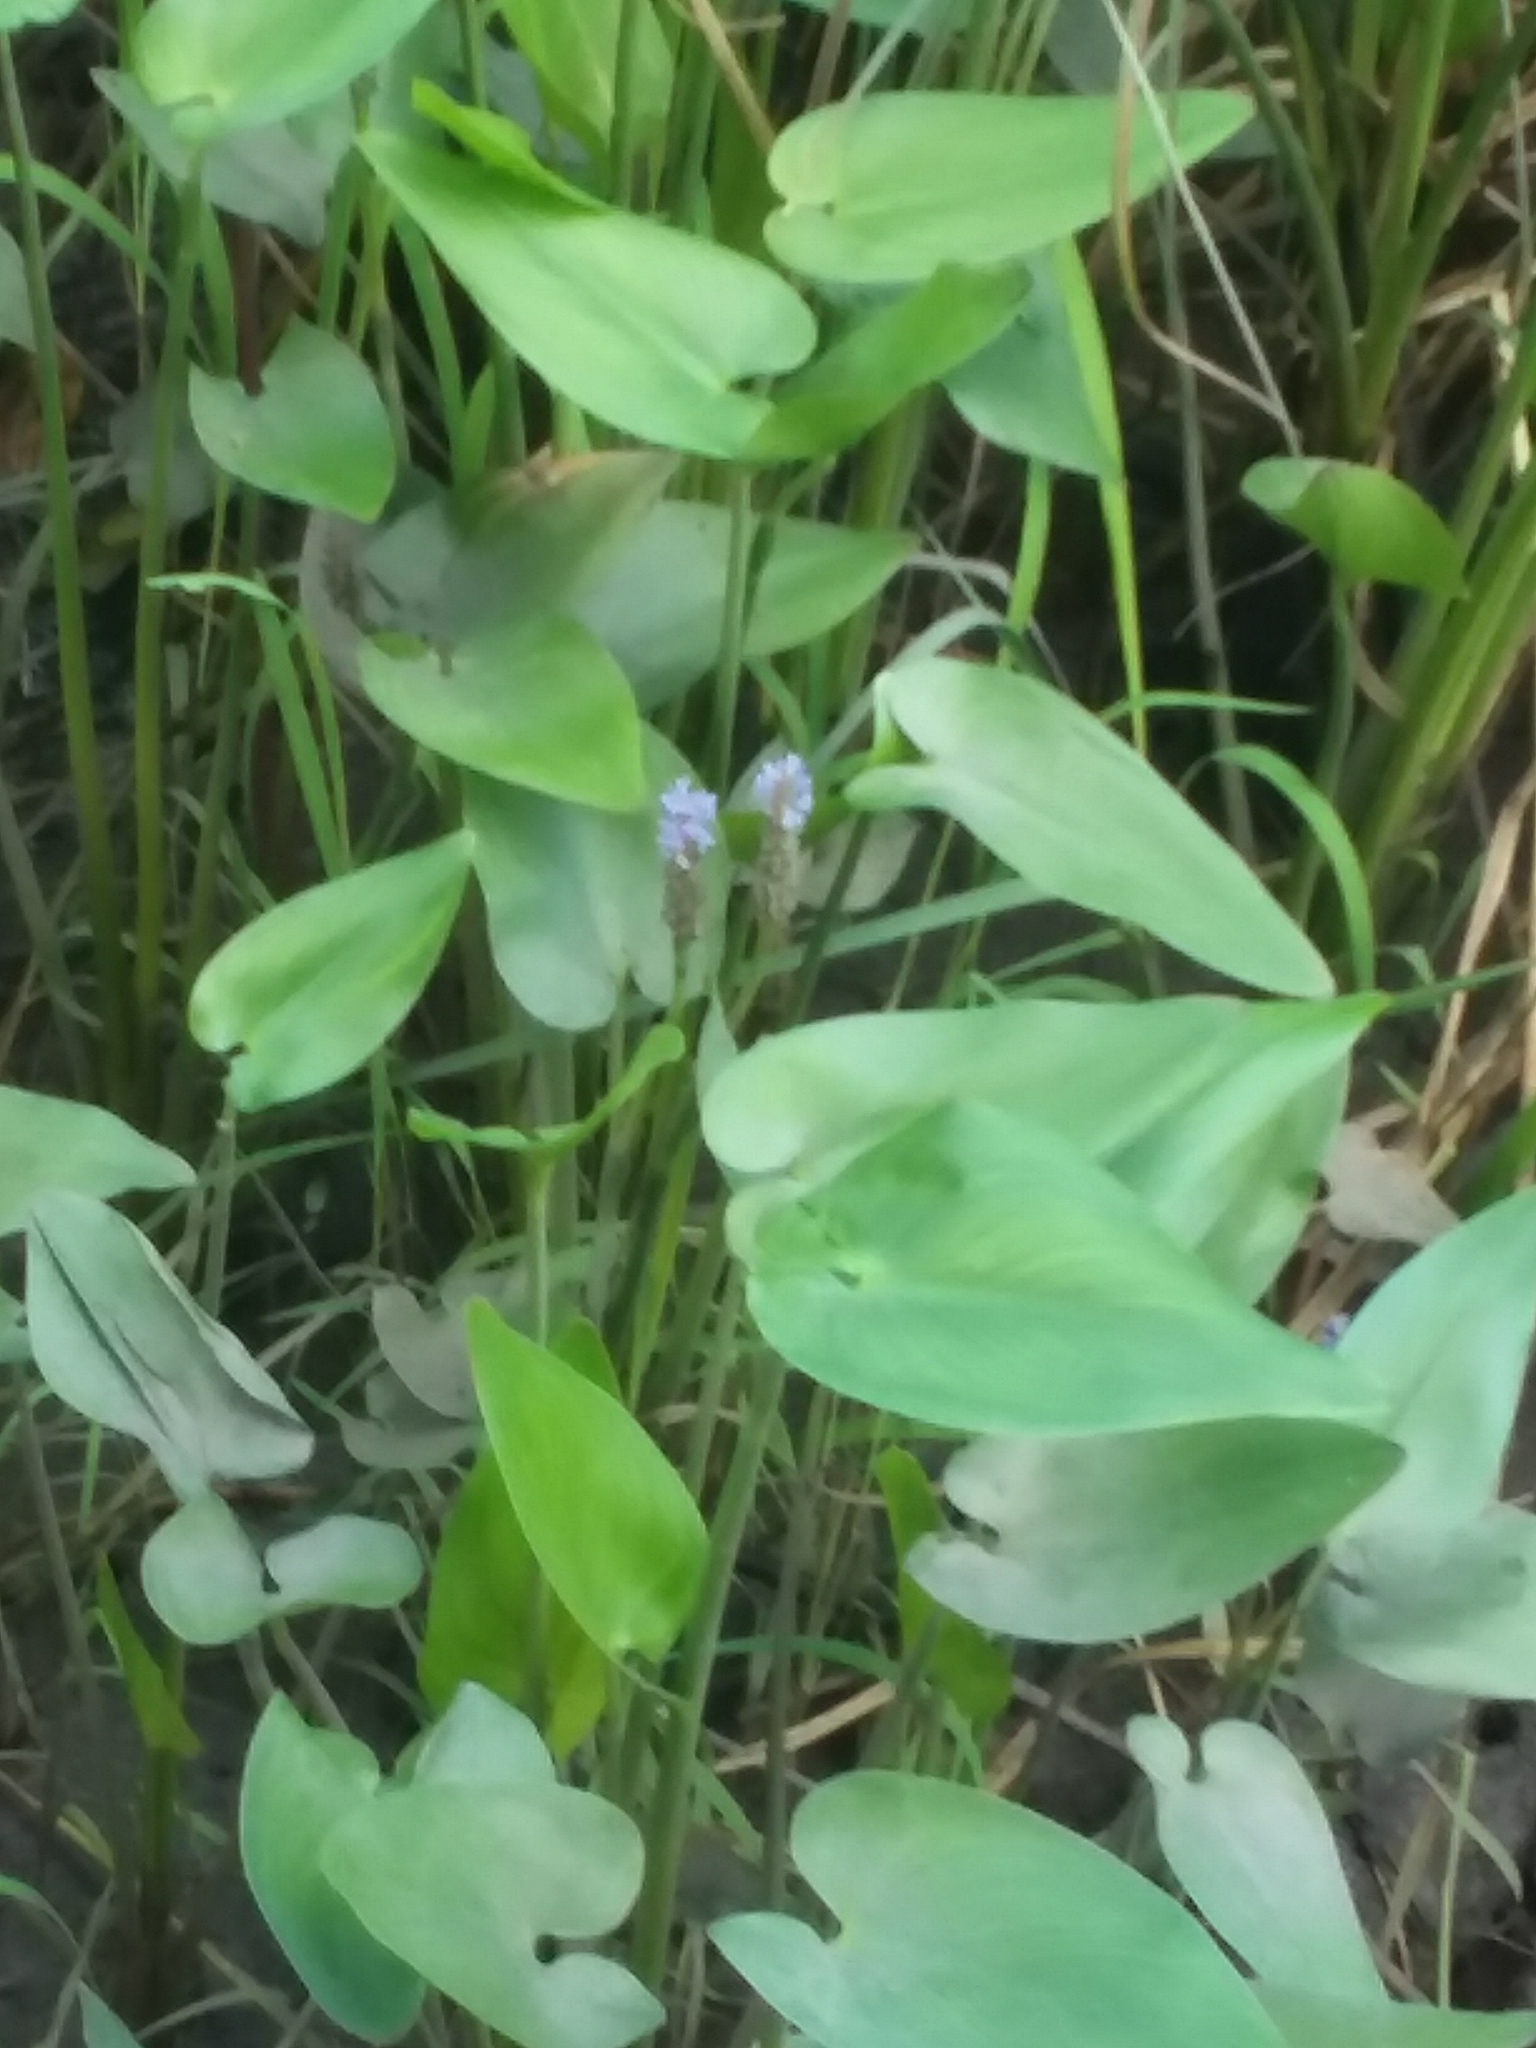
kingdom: Plantae
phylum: Tracheophyta
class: Liliopsida
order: Commelinales
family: Pontederiaceae
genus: Pontederia
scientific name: Pontederia cordata
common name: Pickerelweed
